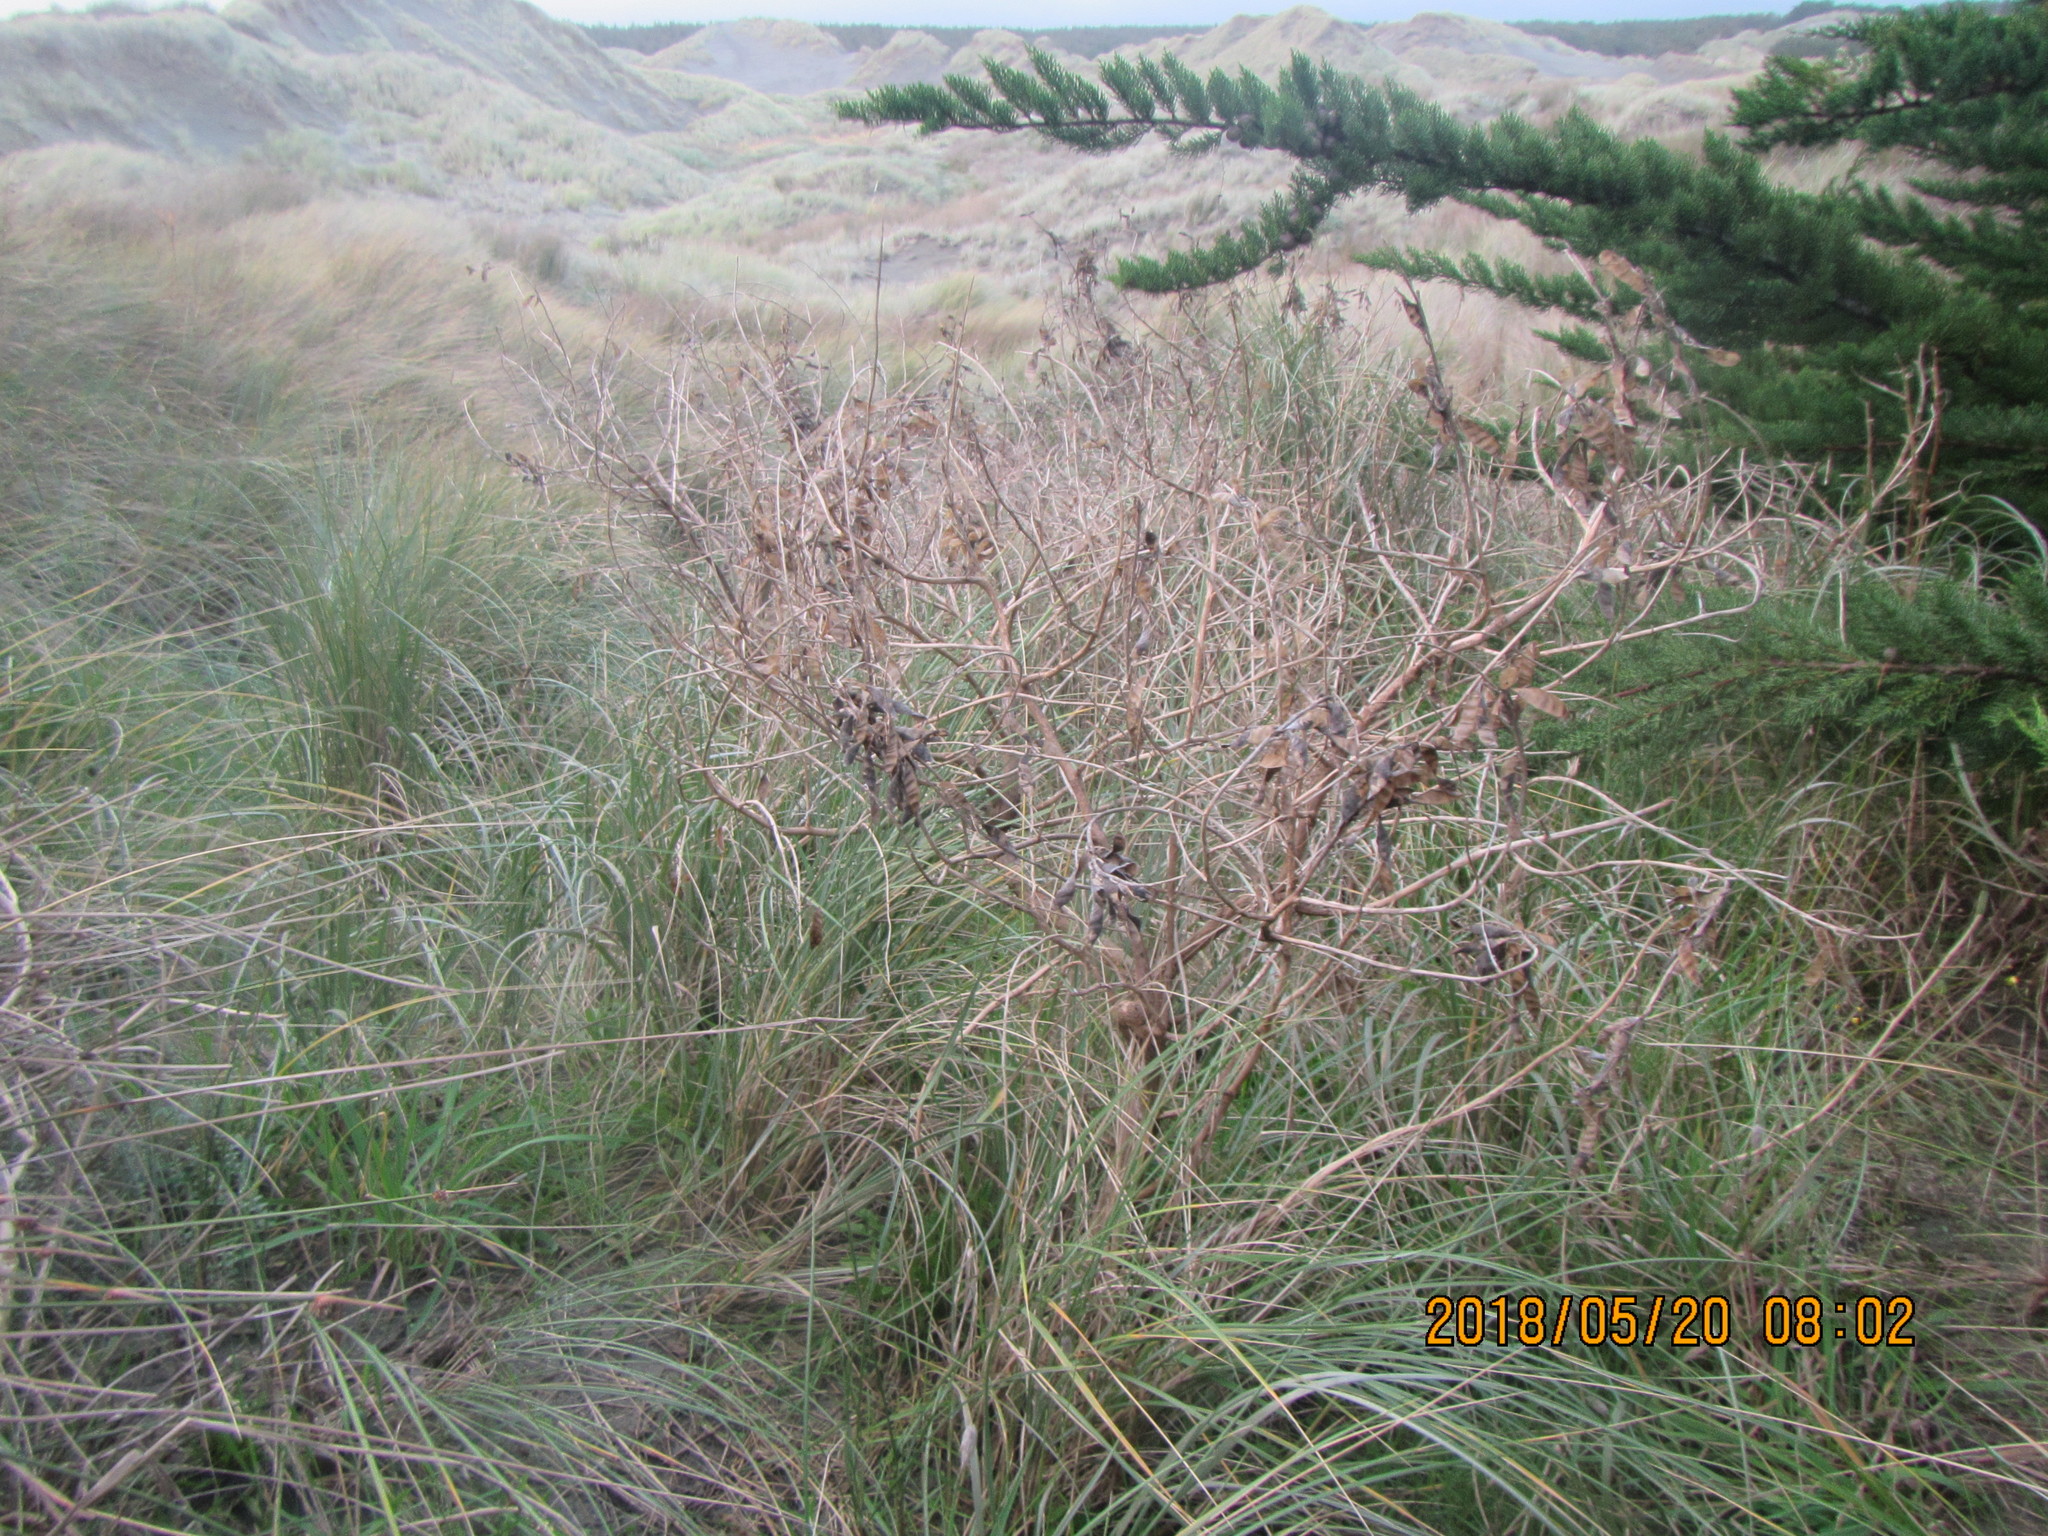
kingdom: Plantae
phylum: Tracheophyta
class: Magnoliopsida
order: Fabales
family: Fabaceae
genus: Lupinus
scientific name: Lupinus arboreus
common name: Yellow bush lupine
